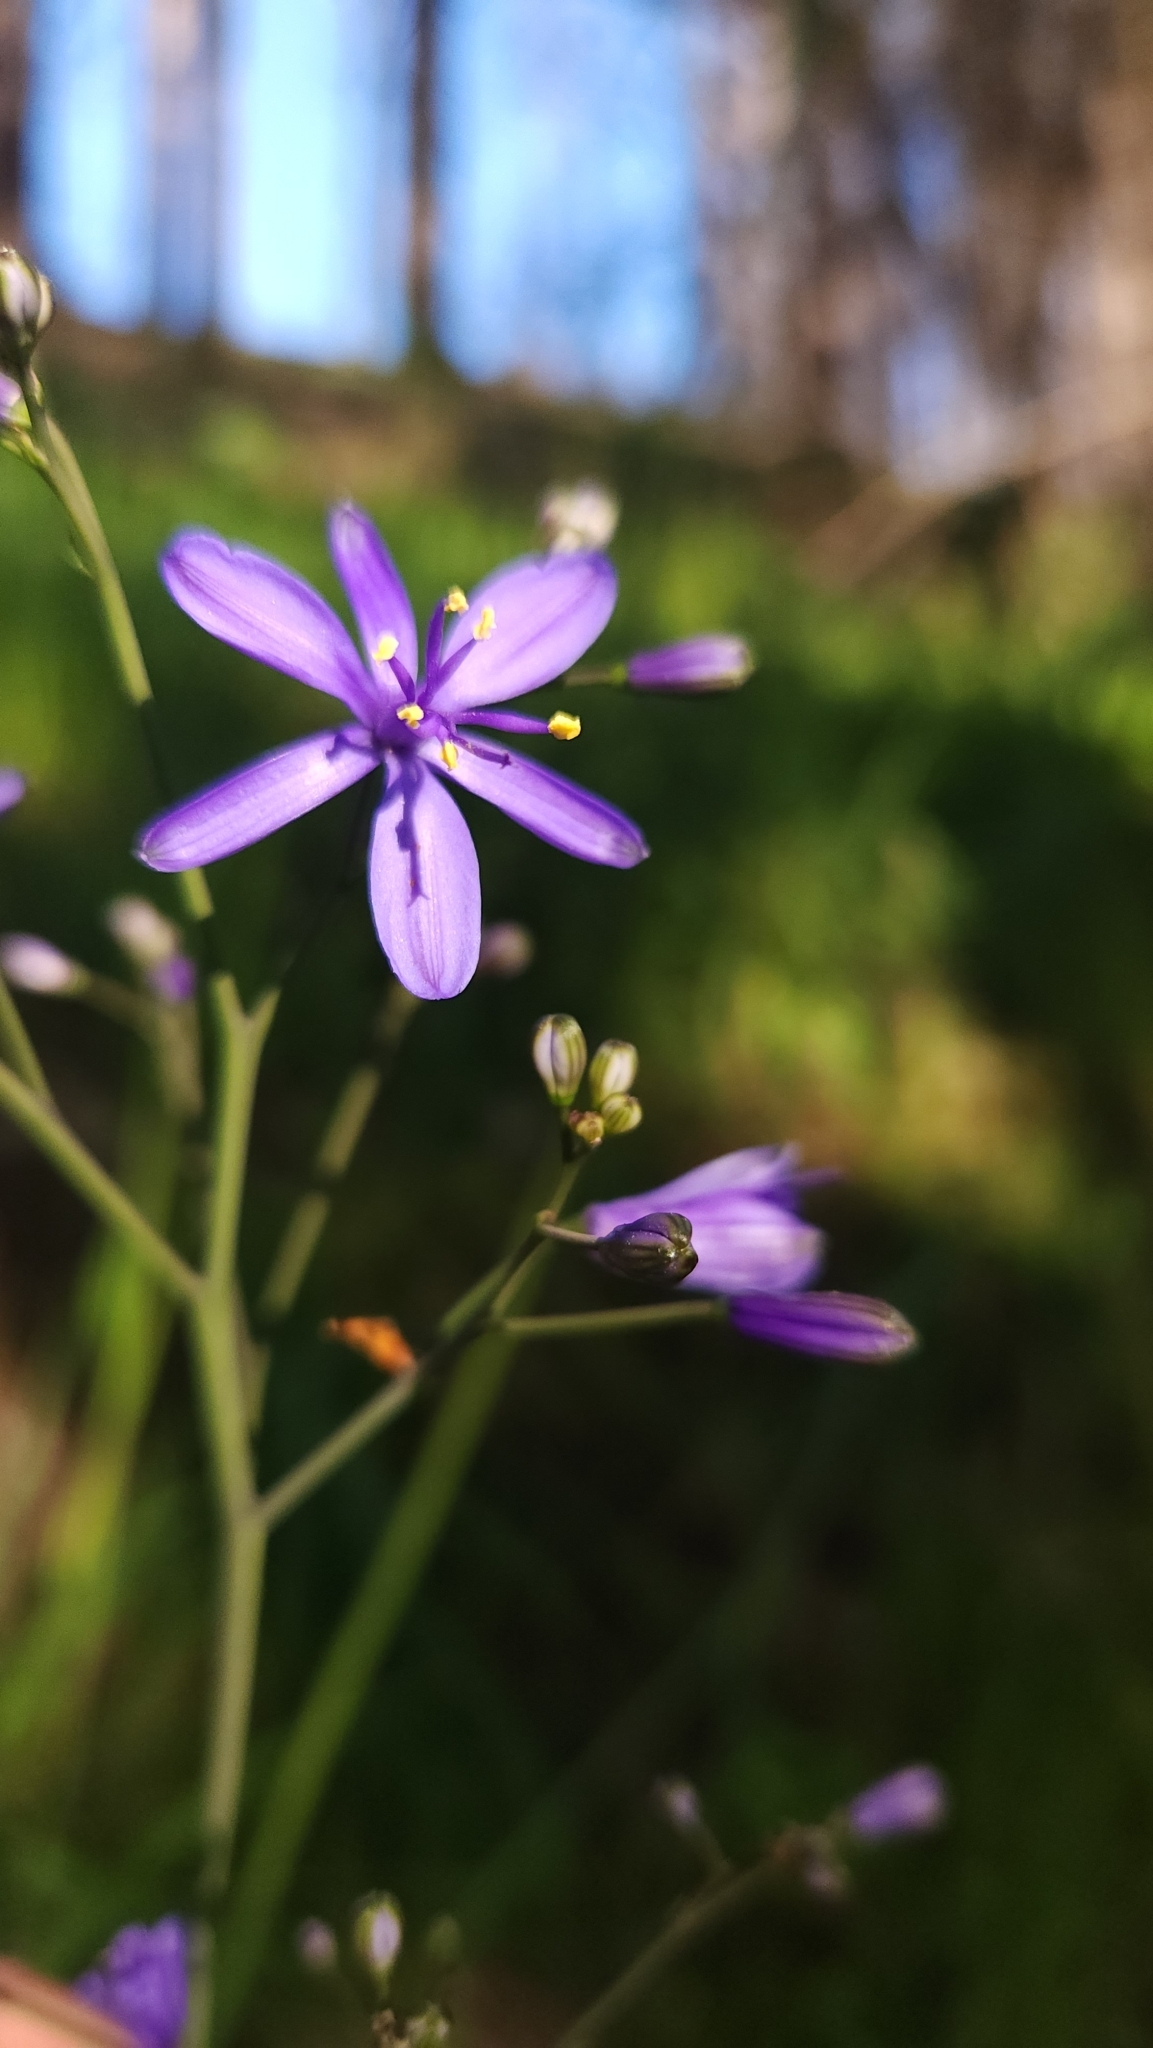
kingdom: Plantae
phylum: Tracheophyta
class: Liliopsida
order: Asparagales
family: Asphodelaceae
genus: Pasithea
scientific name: Pasithea caerulea
